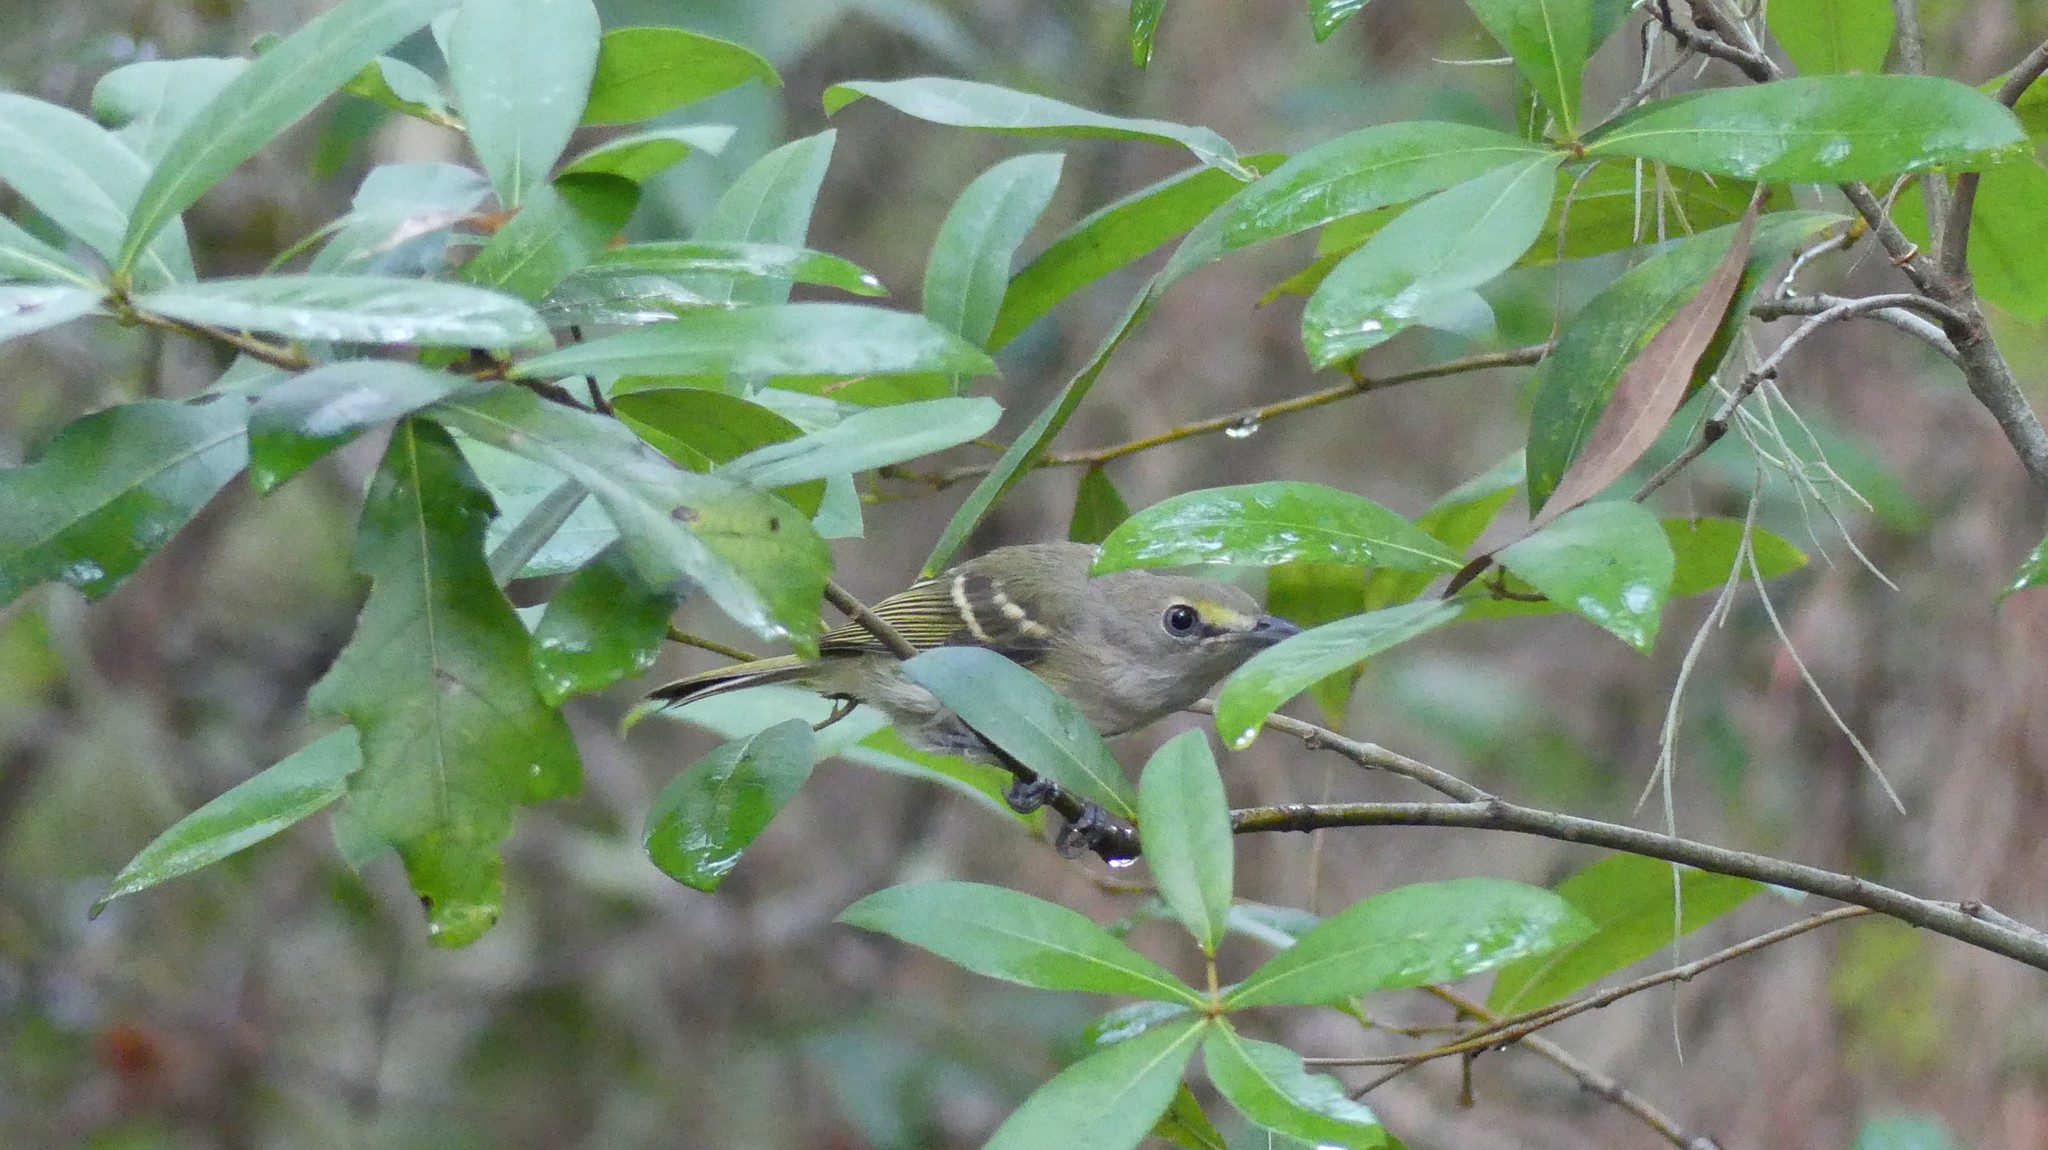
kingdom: Animalia
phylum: Chordata
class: Aves
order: Passeriformes
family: Vireonidae
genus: Vireo
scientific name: Vireo griseus
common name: White-eyed vireo
